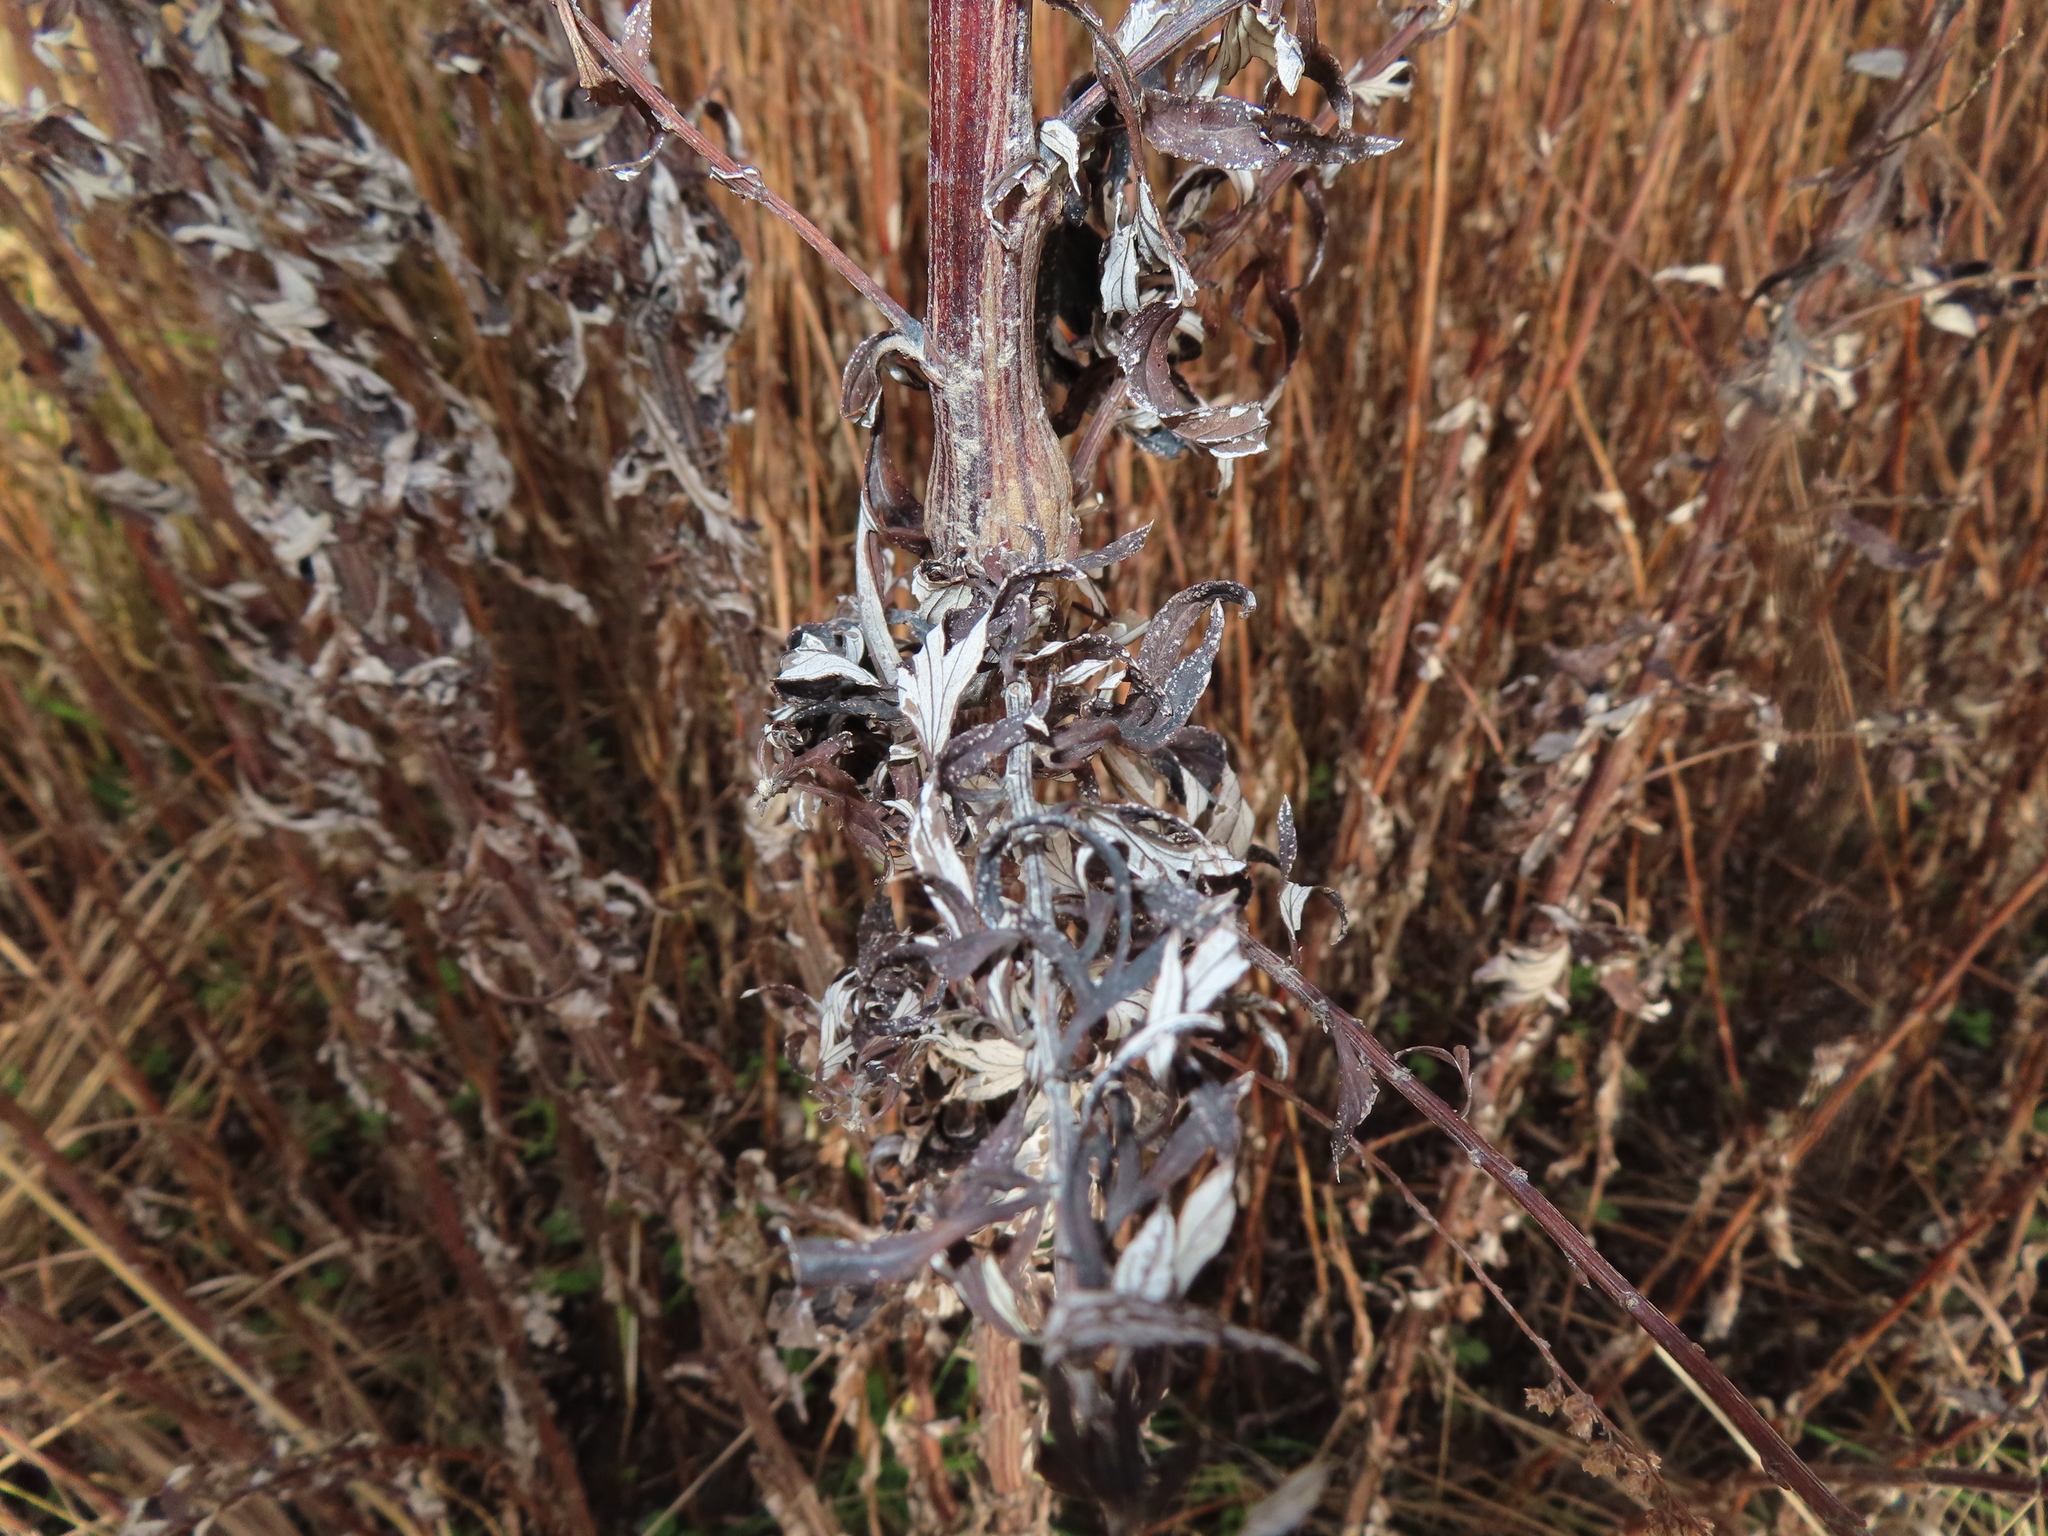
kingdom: Plantae
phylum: Tracheophyta
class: Magnoliopsida
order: Asterales
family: Asteraceae
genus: Artemisia
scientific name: Artemisia vulgaris
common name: Mugwort
